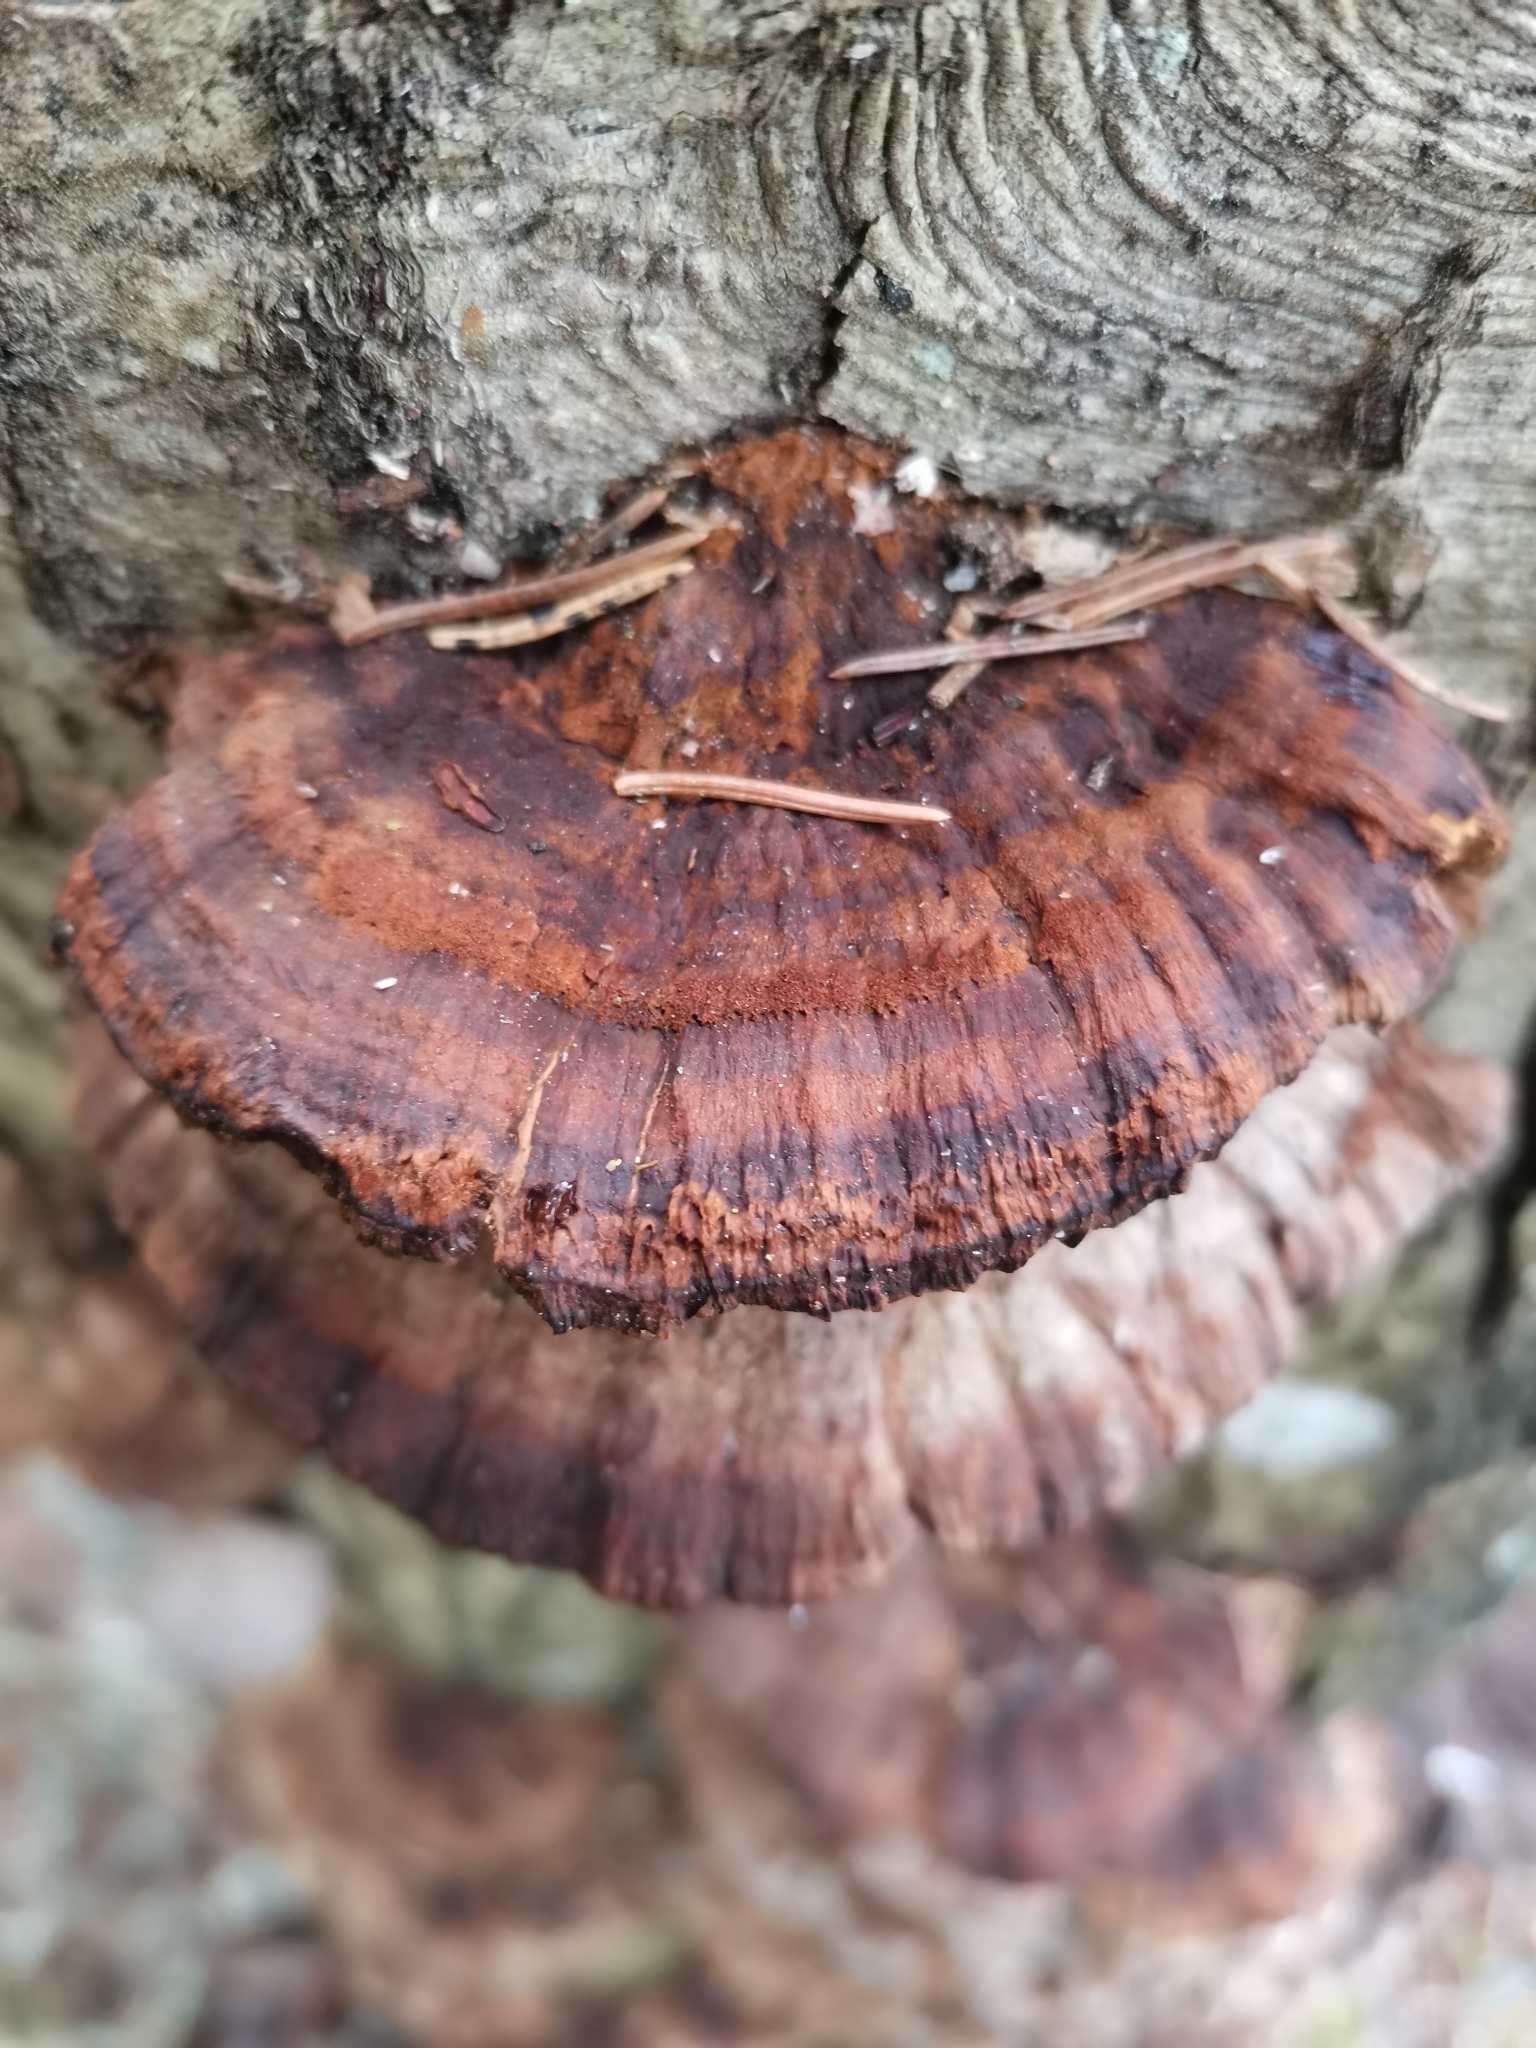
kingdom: Fungi
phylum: Basidiomycota
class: Agaricomycetes
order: Hymenochaetales
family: Hymenochaetaceae
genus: Xanthoporia
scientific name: Xanthoporia radiata
